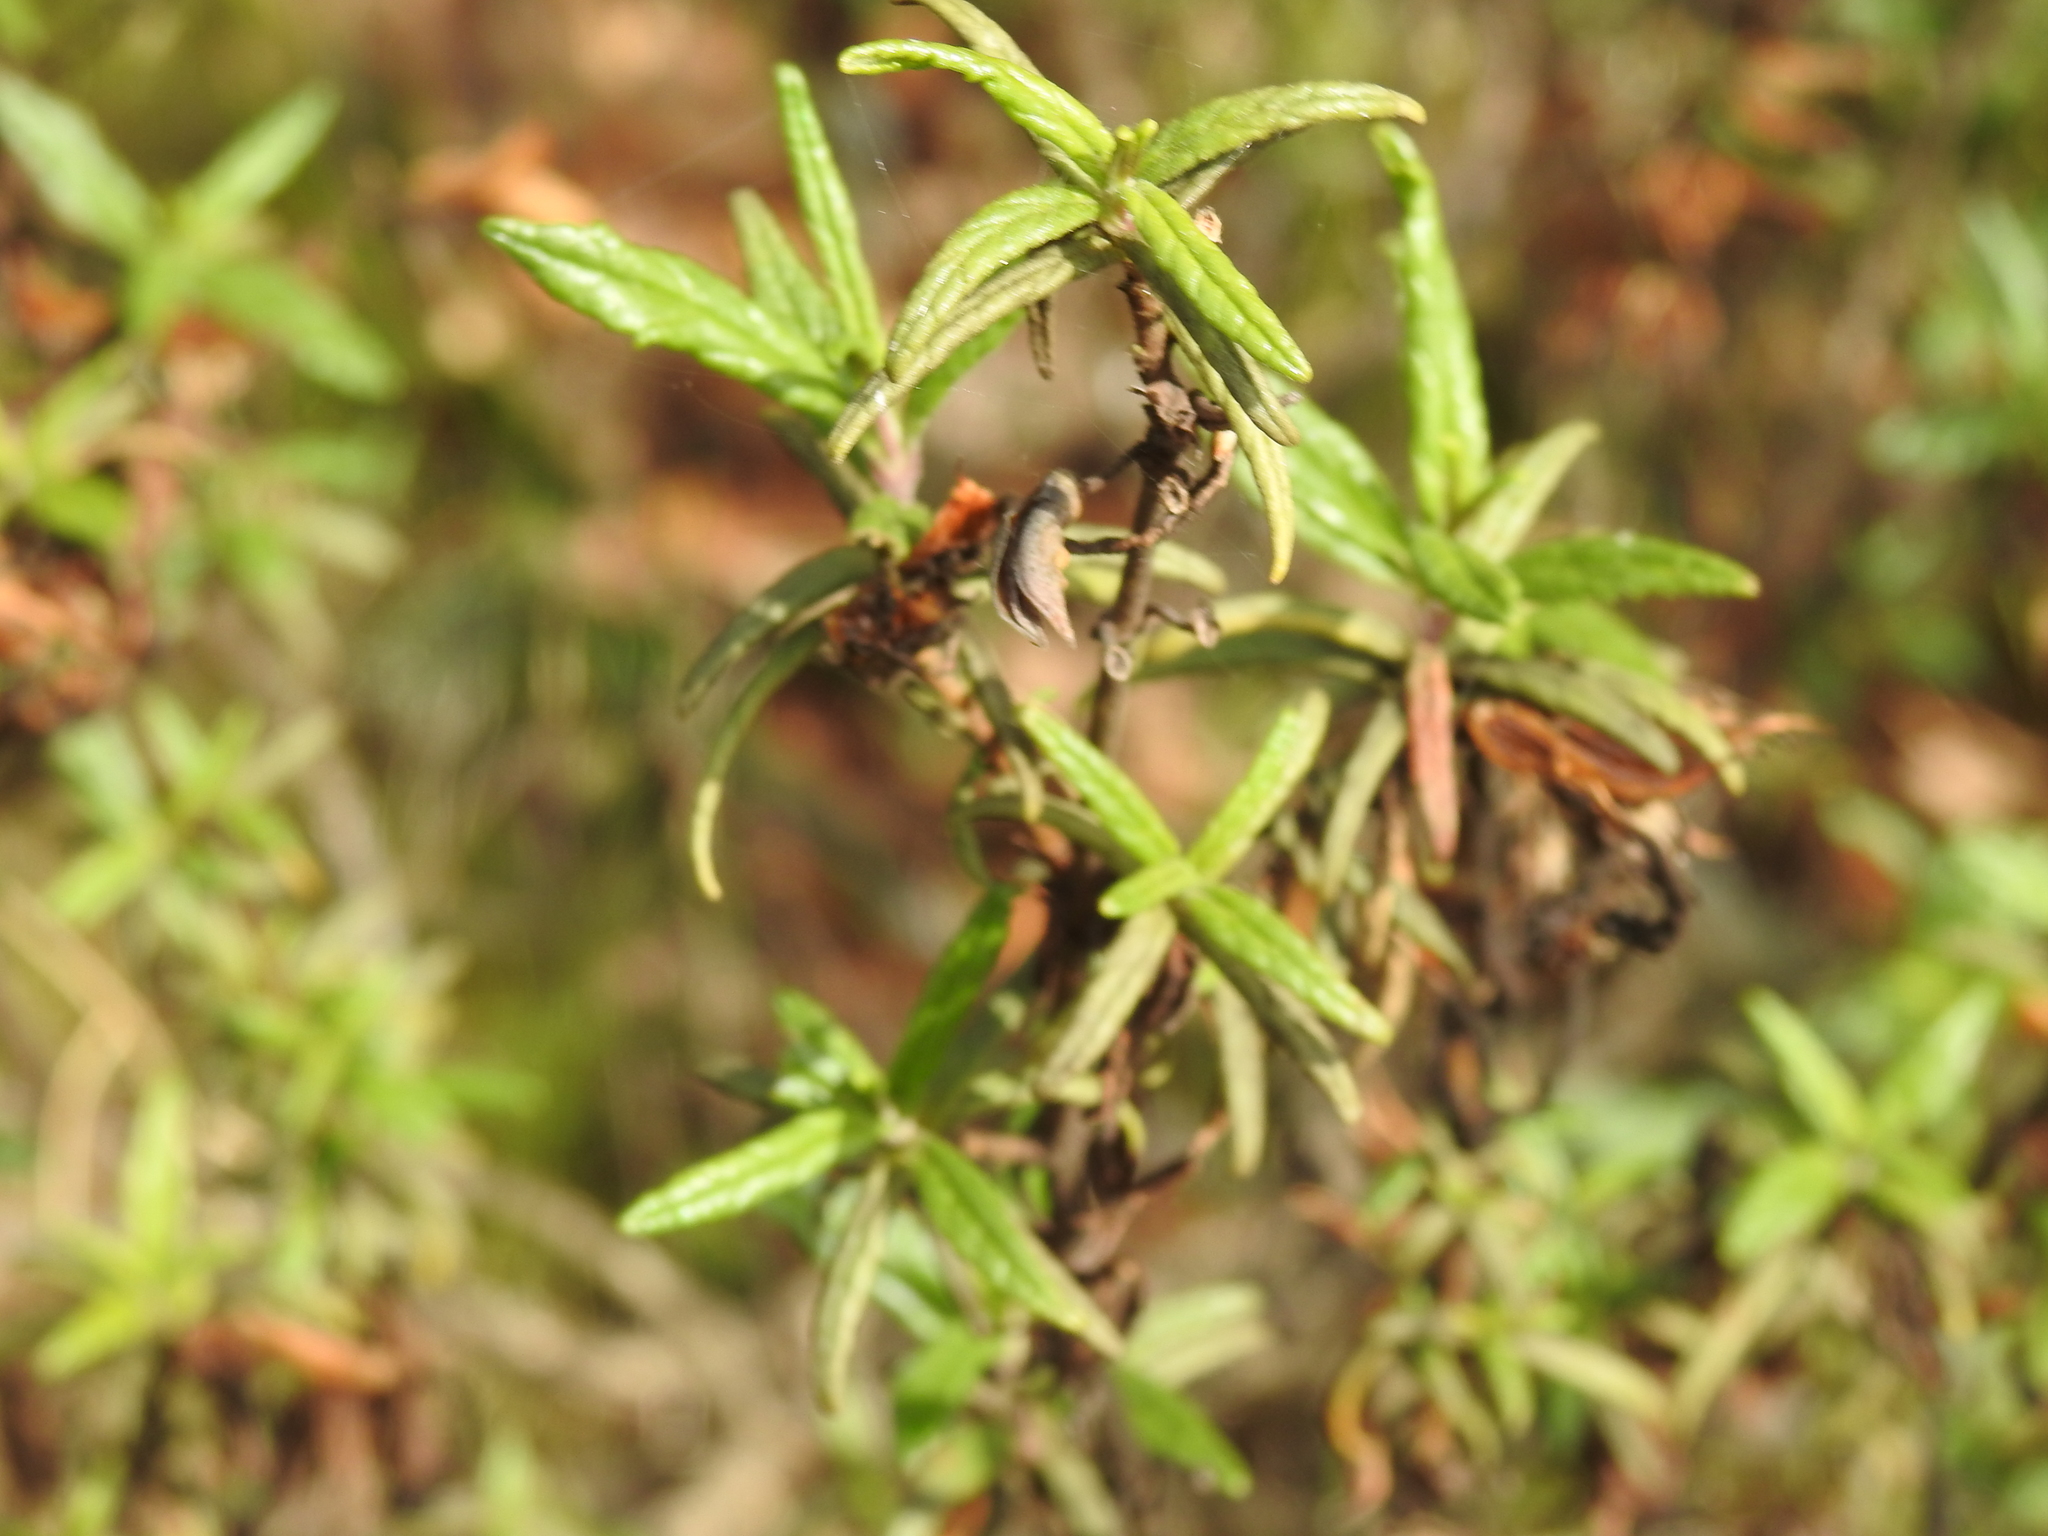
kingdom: Plantae
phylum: Tracheophyta
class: Magnoliopsida
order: Lamiales
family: Phrymaceae
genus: Diplacus
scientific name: Diplacus aurantiacus
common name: Bush monkey-flower
